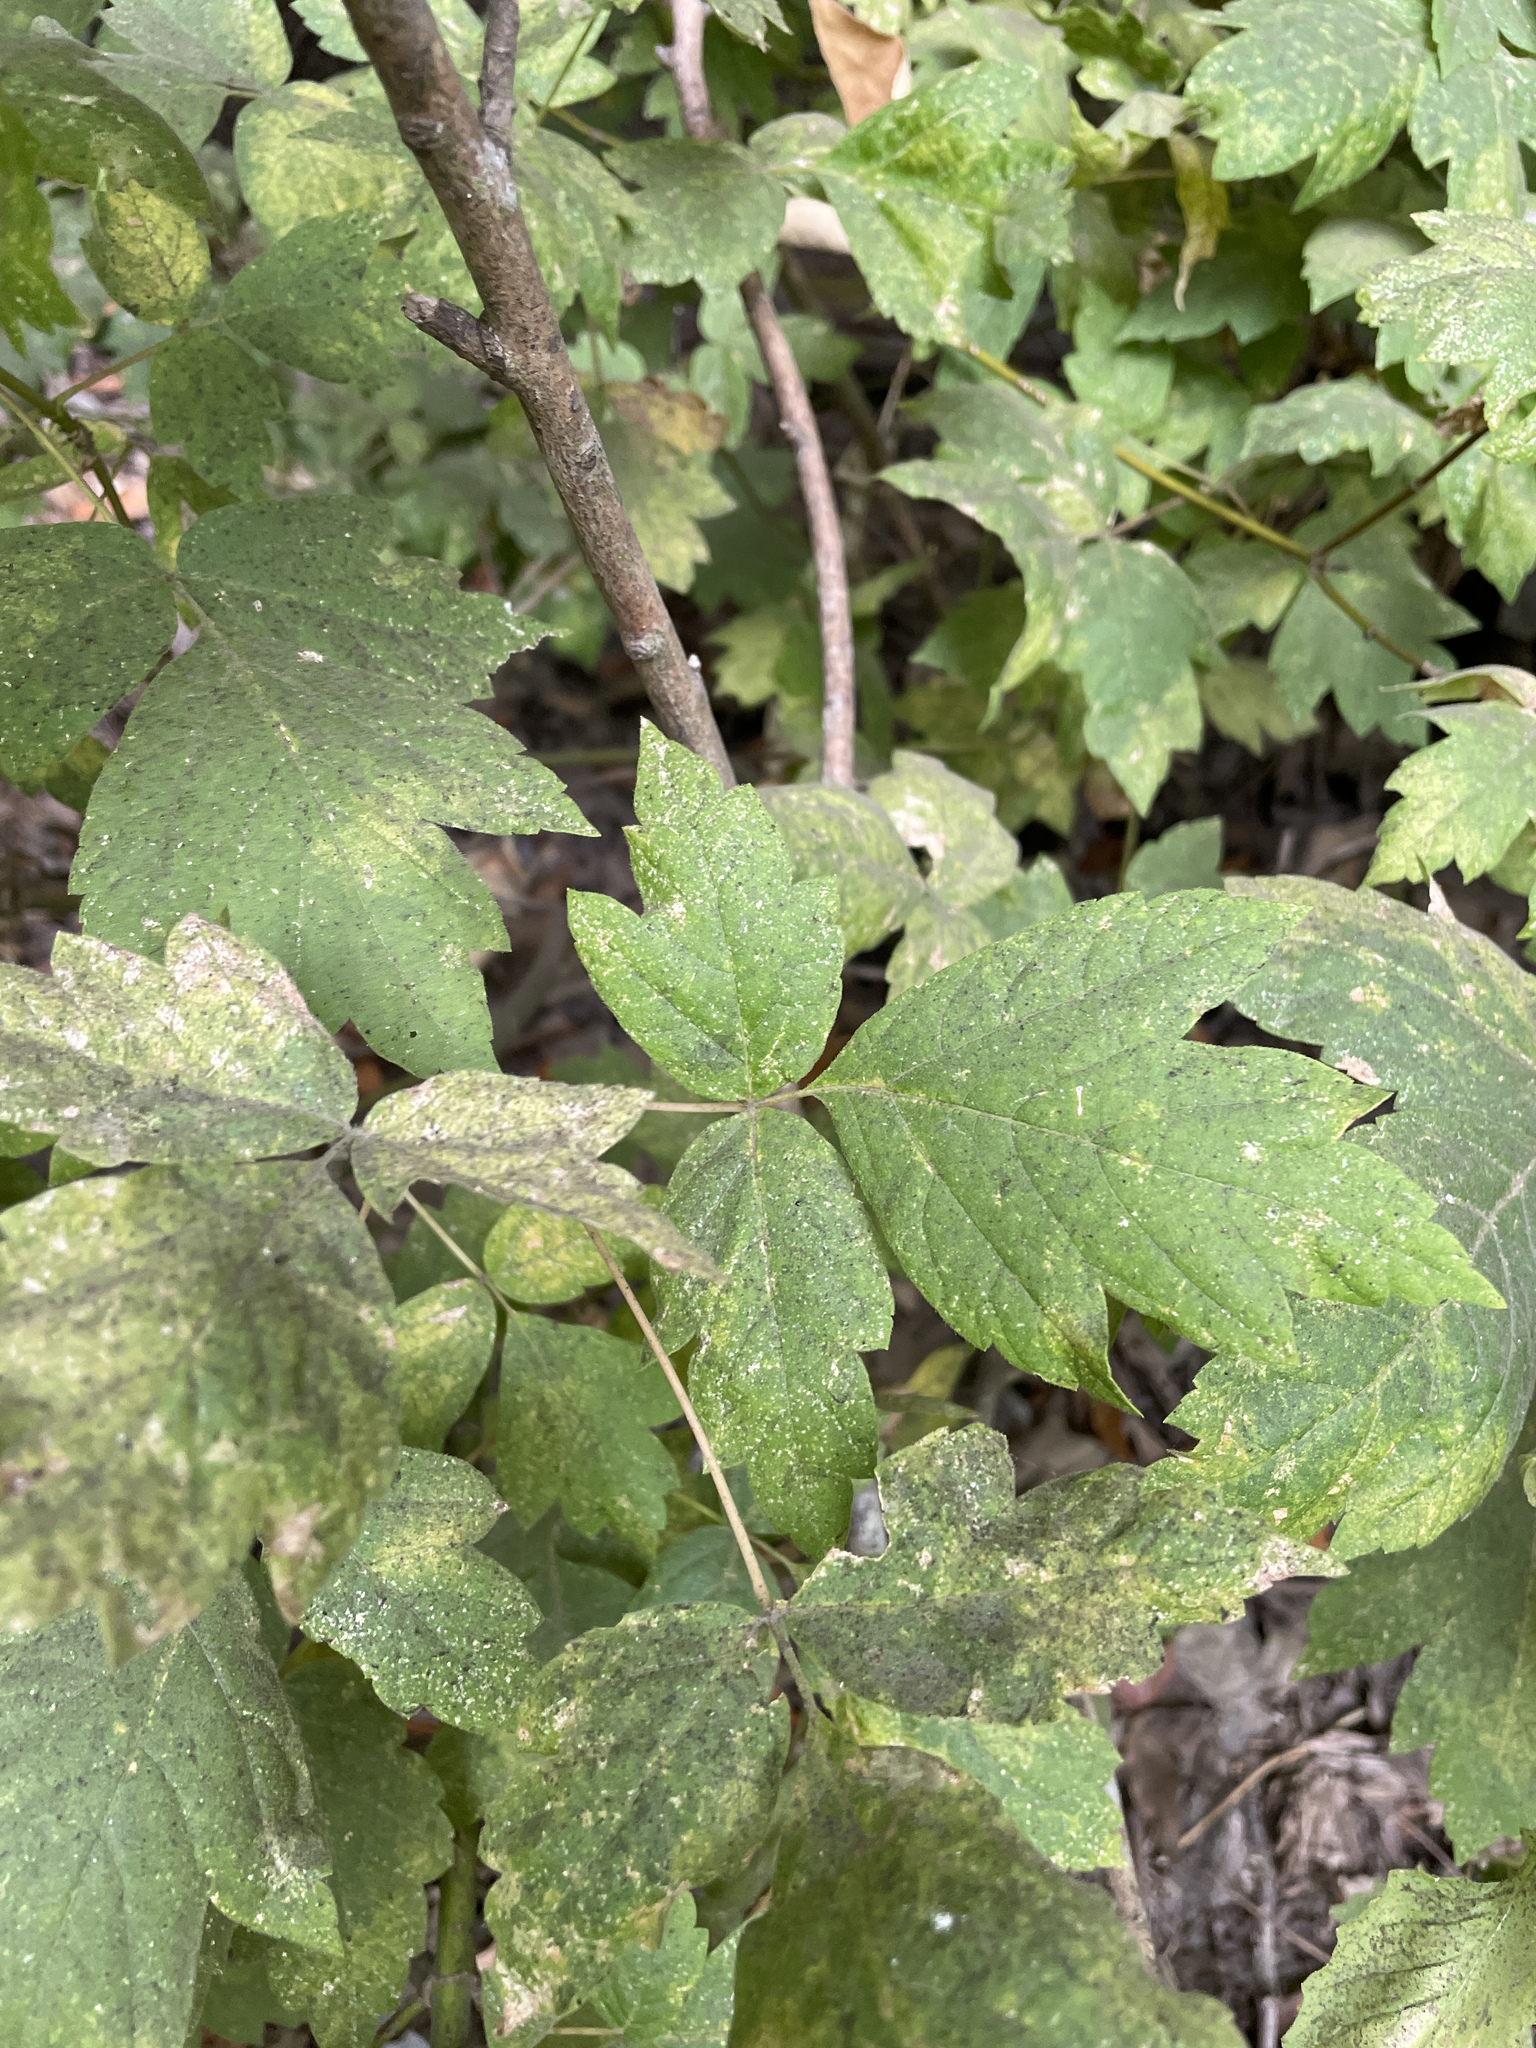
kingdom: Plantae
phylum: Tracheophyta
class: Magnoliopsida
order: Sapindales
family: Sapindaceae
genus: Acer
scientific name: Acer negundo
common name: Ashleaf maple
